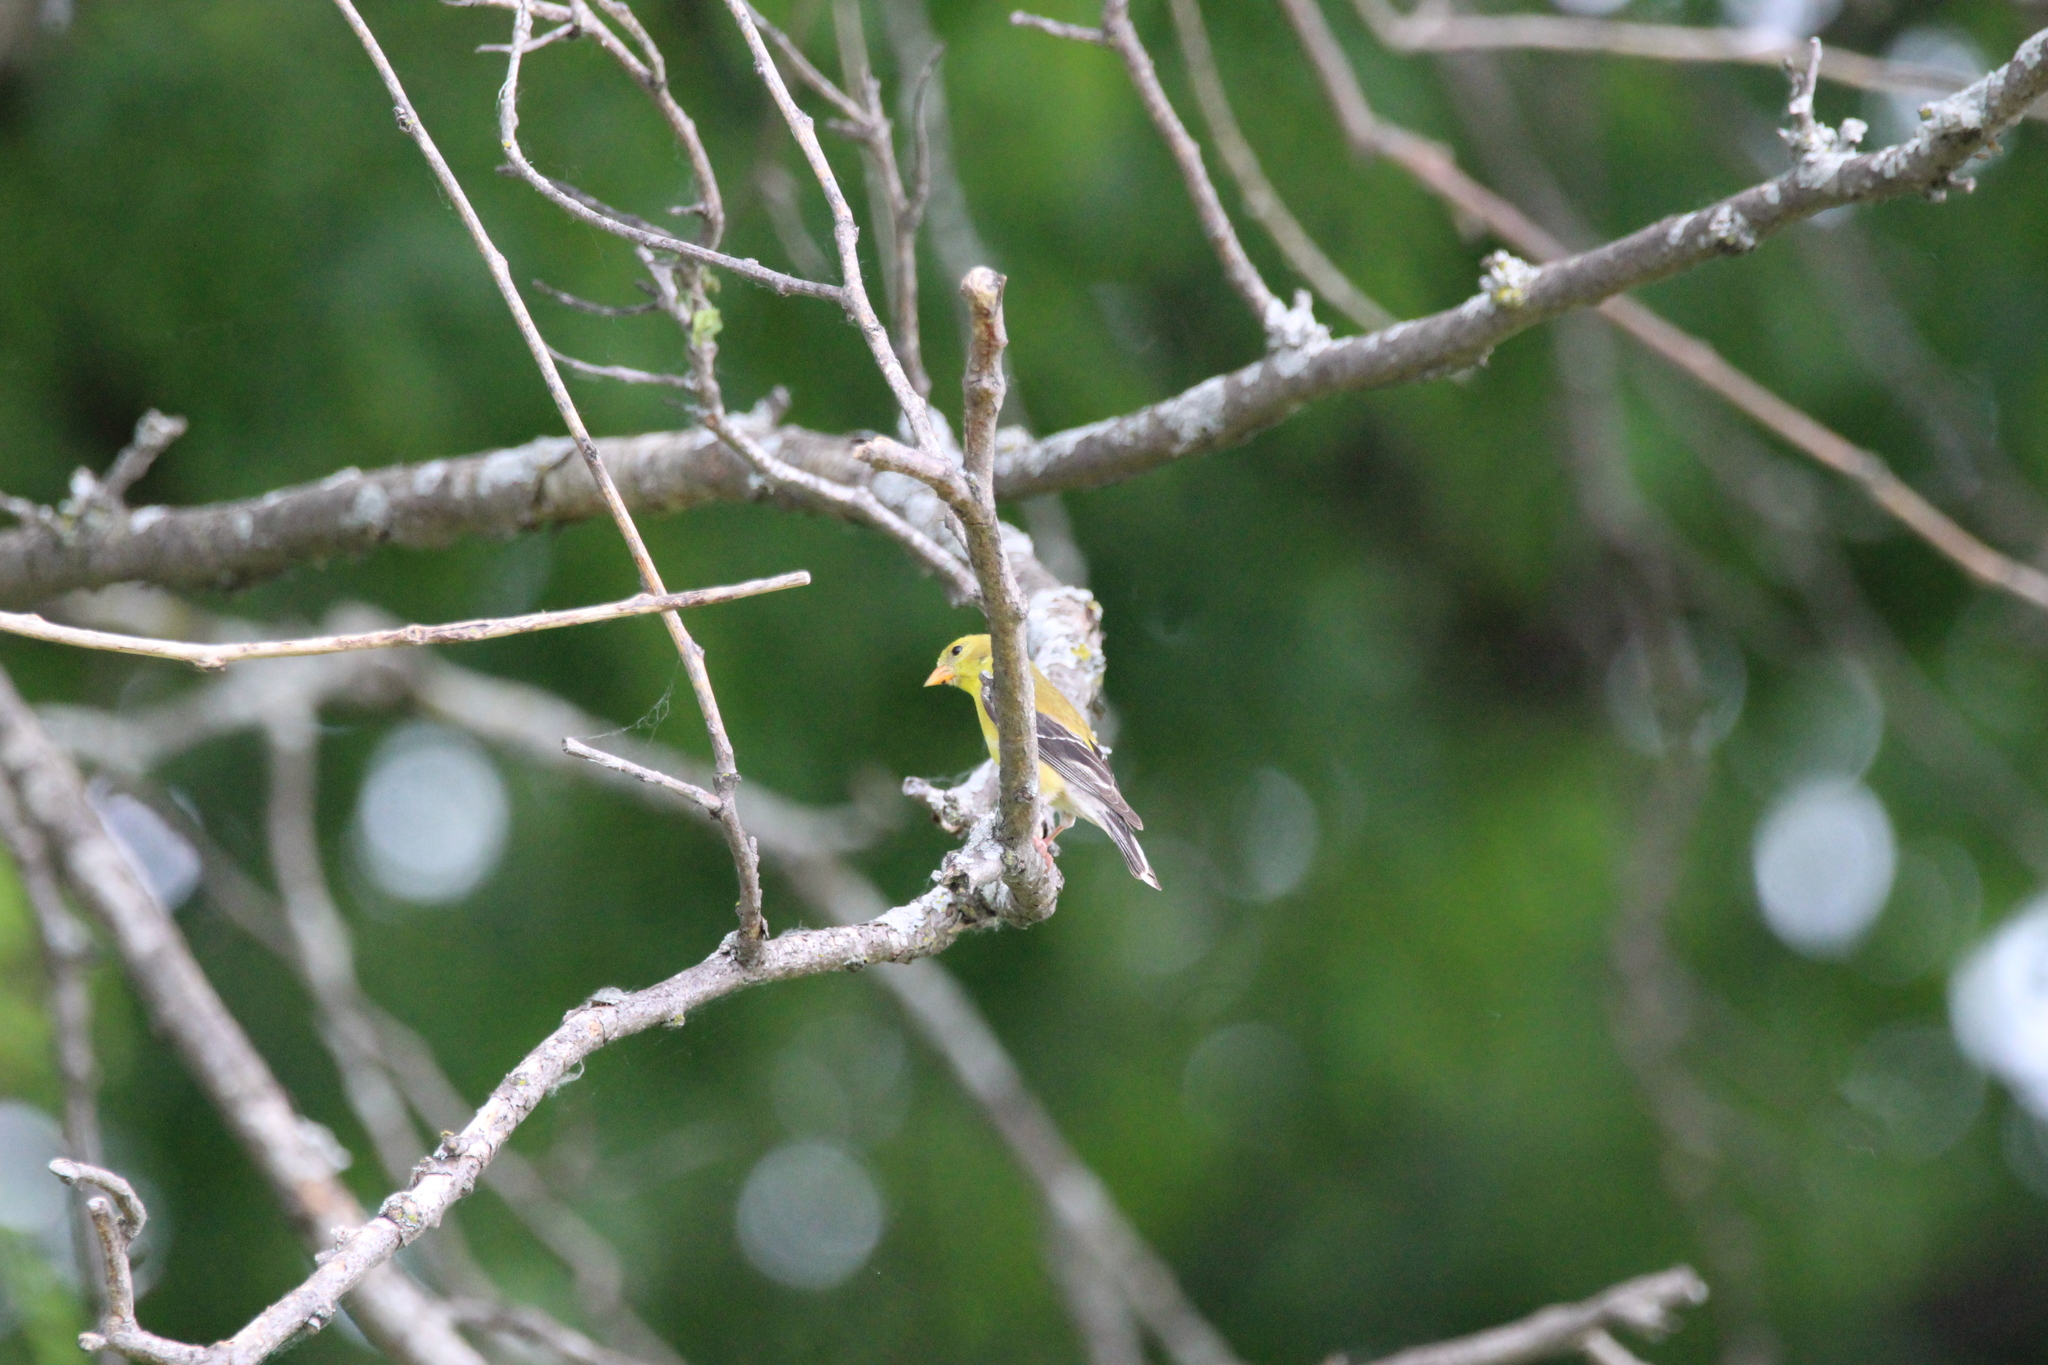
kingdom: Animalia
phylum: Chordata
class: Aves
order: Passeriformes
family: Fringillidae
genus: Spinus
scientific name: Spinus tristis
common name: American goldfinch
